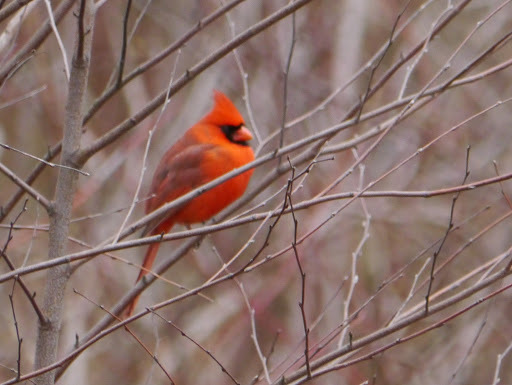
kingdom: Animalia
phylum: Chordata
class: Aves
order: Passeriformes
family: Cardinalidae
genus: Cardinalis
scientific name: Cardinalis cardinalis
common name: Northern cardinal
